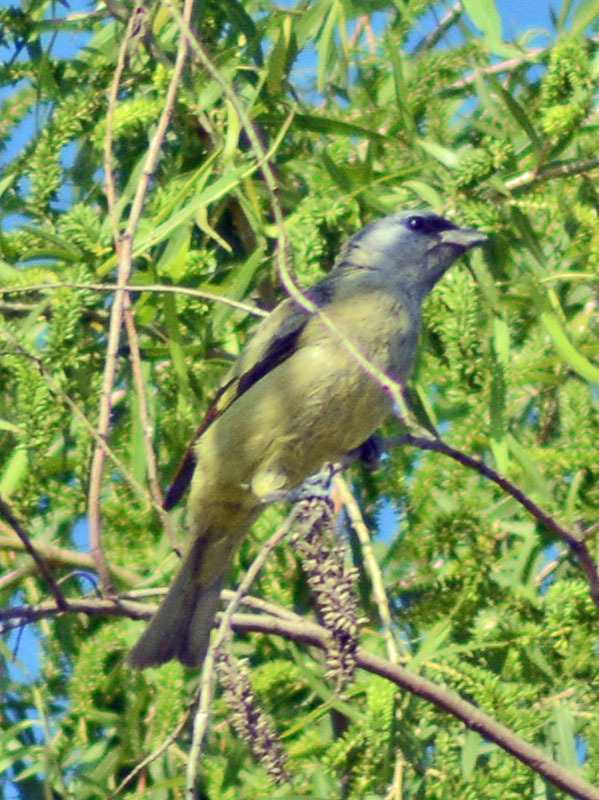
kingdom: Animalia
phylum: Chordata
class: Aves
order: Passeriformes
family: Thraupidae
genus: Thraupis
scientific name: Thraupis abbas
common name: Yellow-winged tanager
